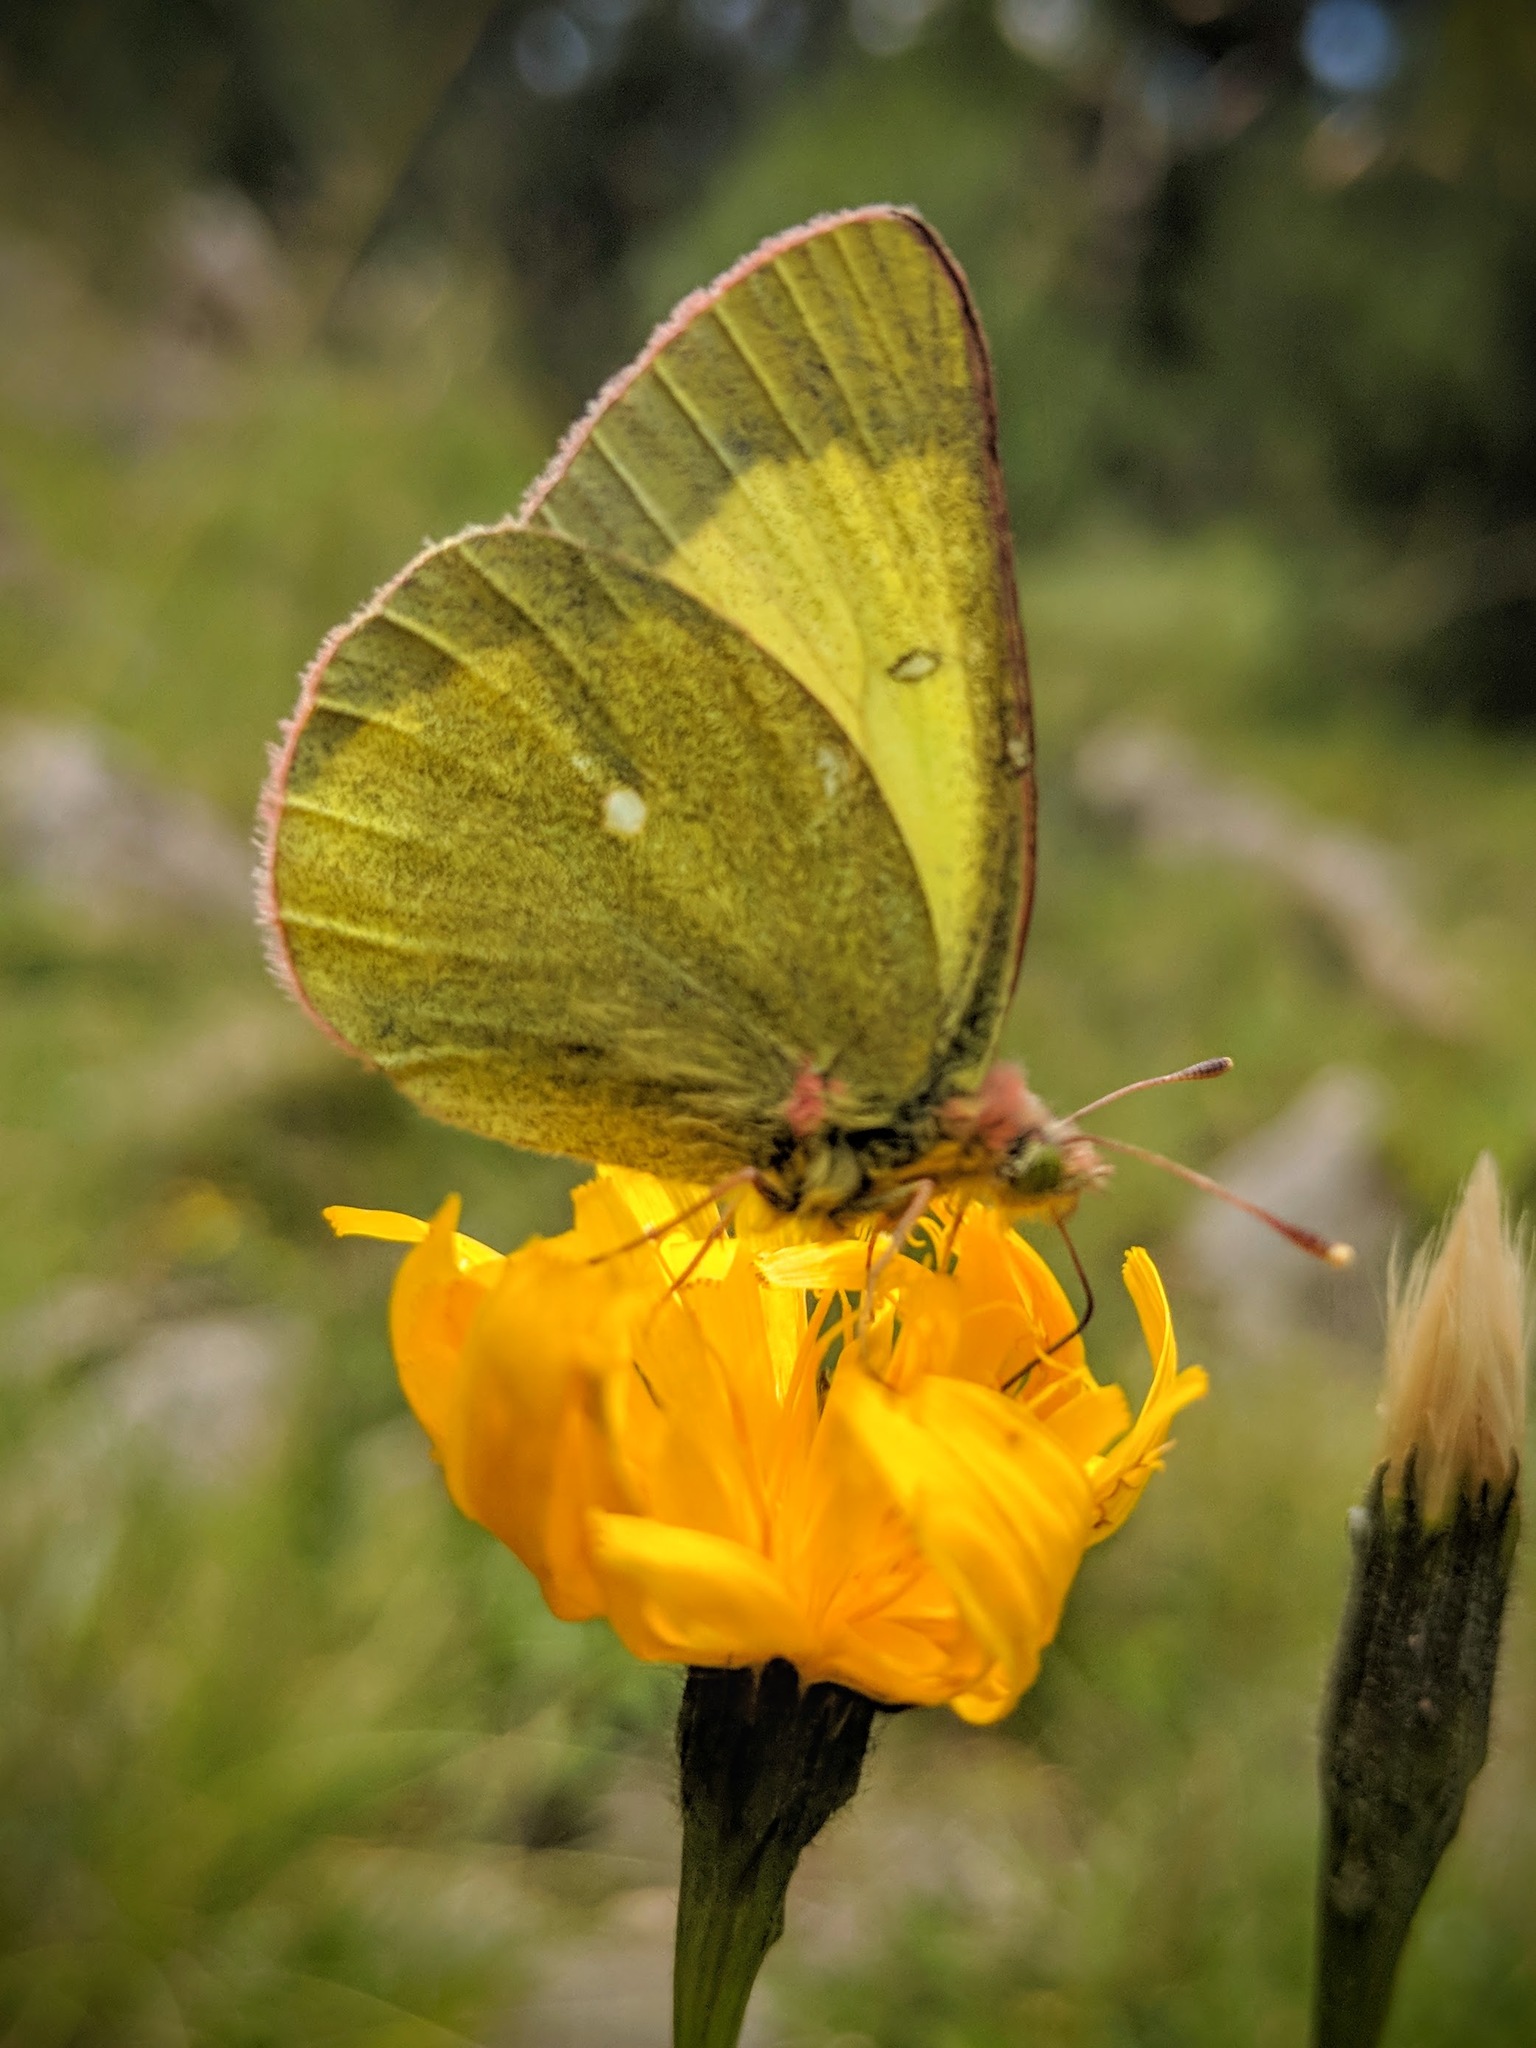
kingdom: Animalia
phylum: Arthropoda
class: Insecta
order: Lepidoptera
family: Pieridae
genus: Colias
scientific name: Colias palaeno
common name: Moorland clouded yellow
